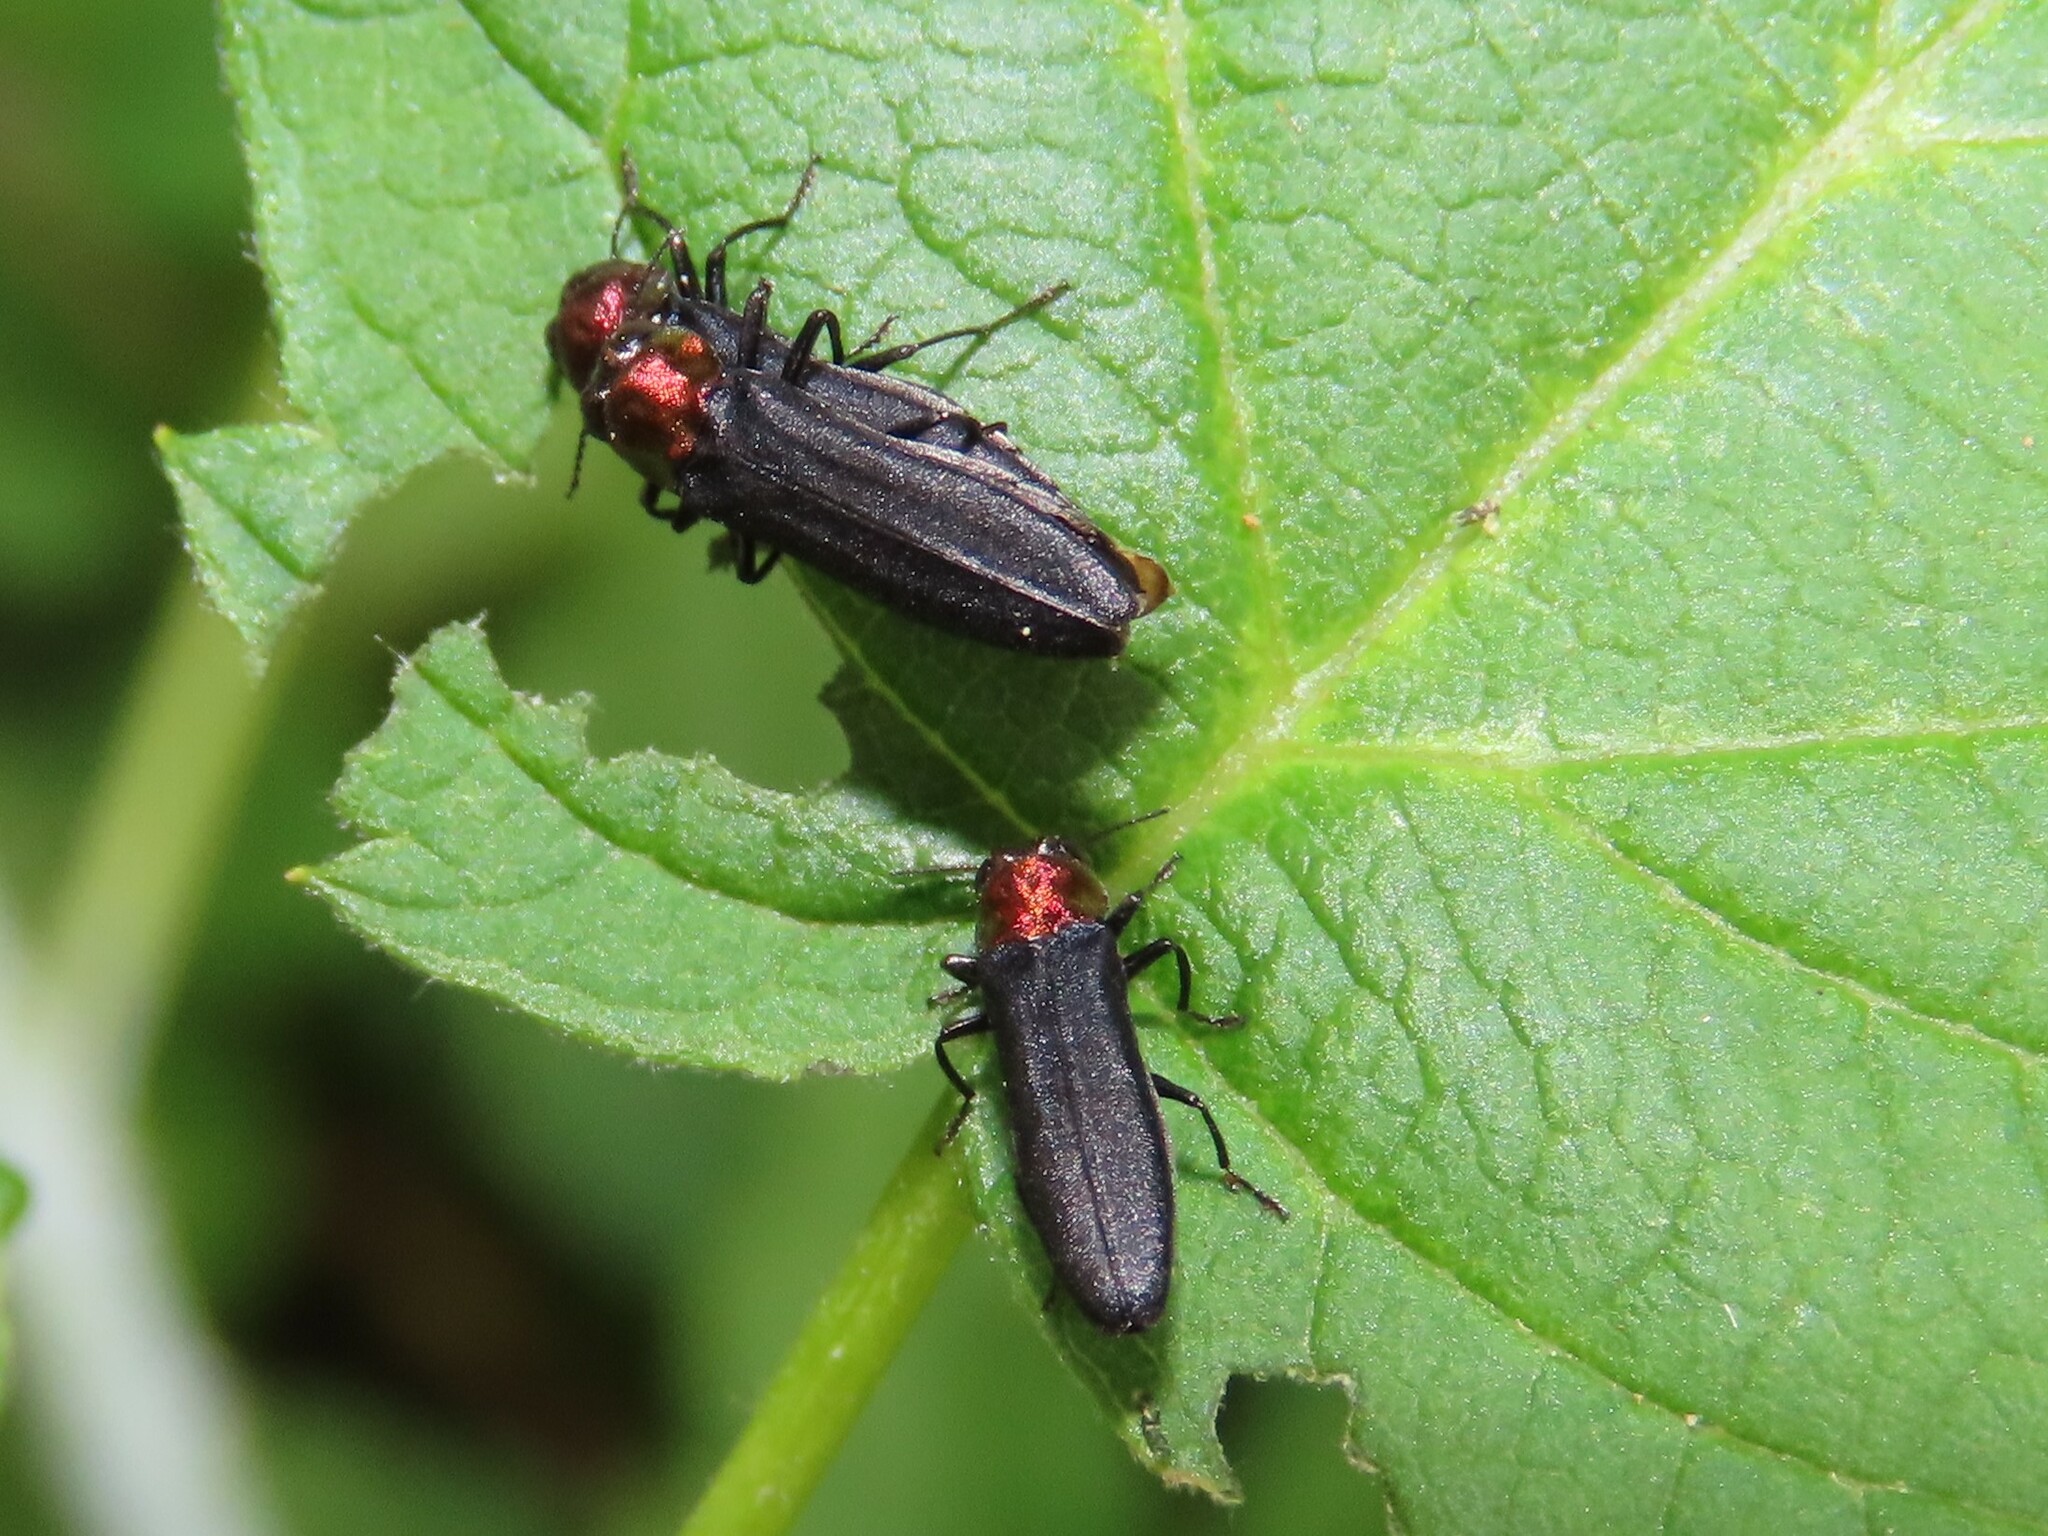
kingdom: Animalia
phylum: Arthropoda
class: Insecta
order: Coleoptera
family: Buprestidae
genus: Agrilus
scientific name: Agrilus ruficollis
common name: Red-necked cane borer beetle
